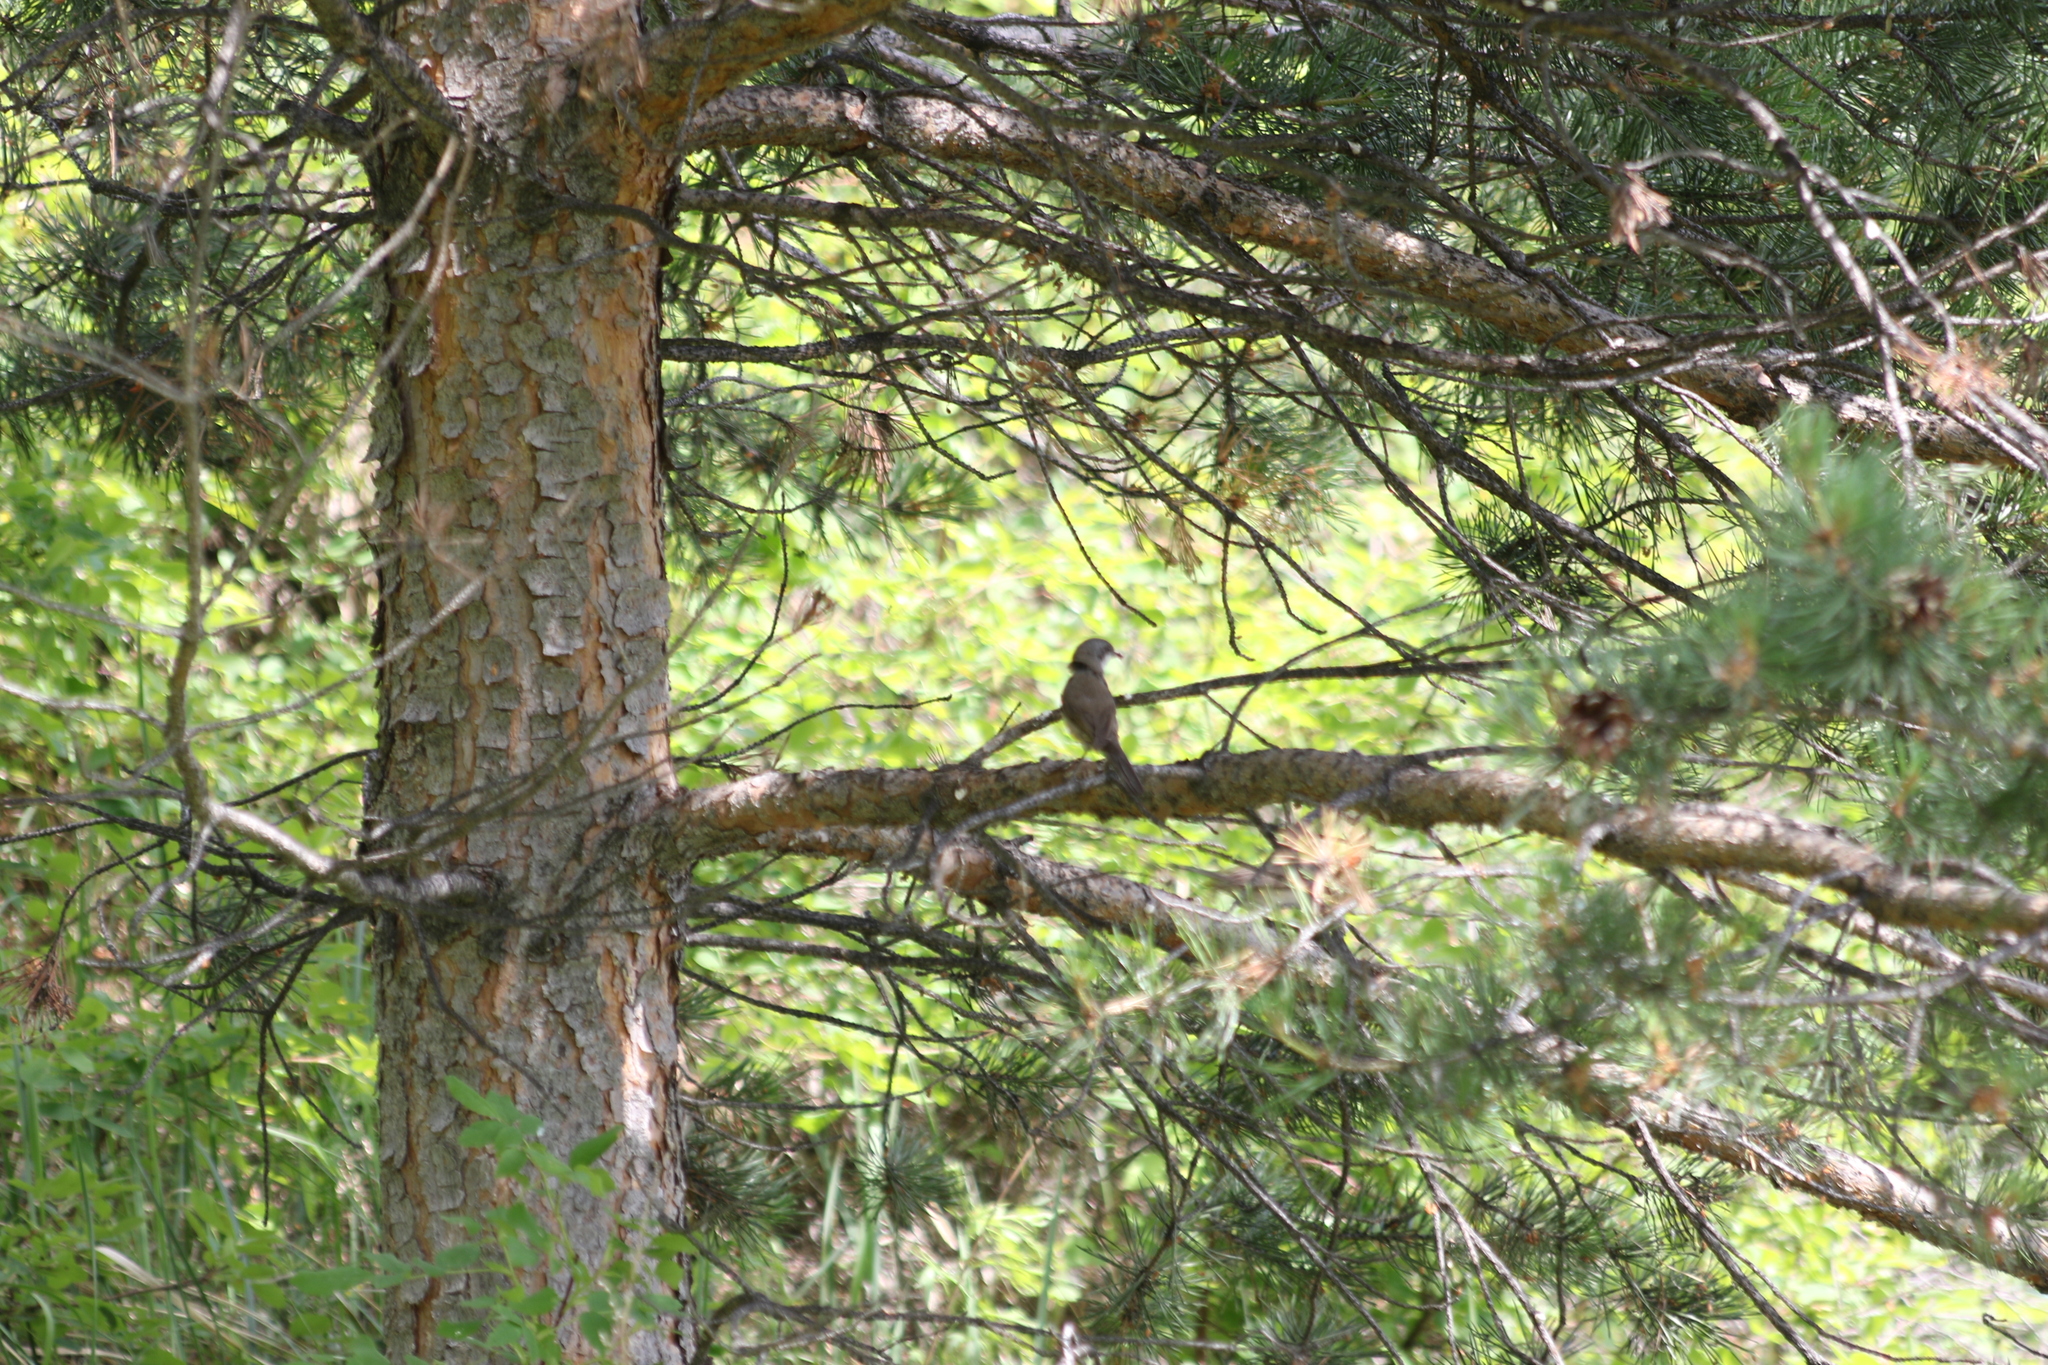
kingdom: Animalia
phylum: Chordata
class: Aves
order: Passeriformes
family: Sylviidae
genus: Sylvia
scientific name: Sylvia curruca
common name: Lesser whitethroat
